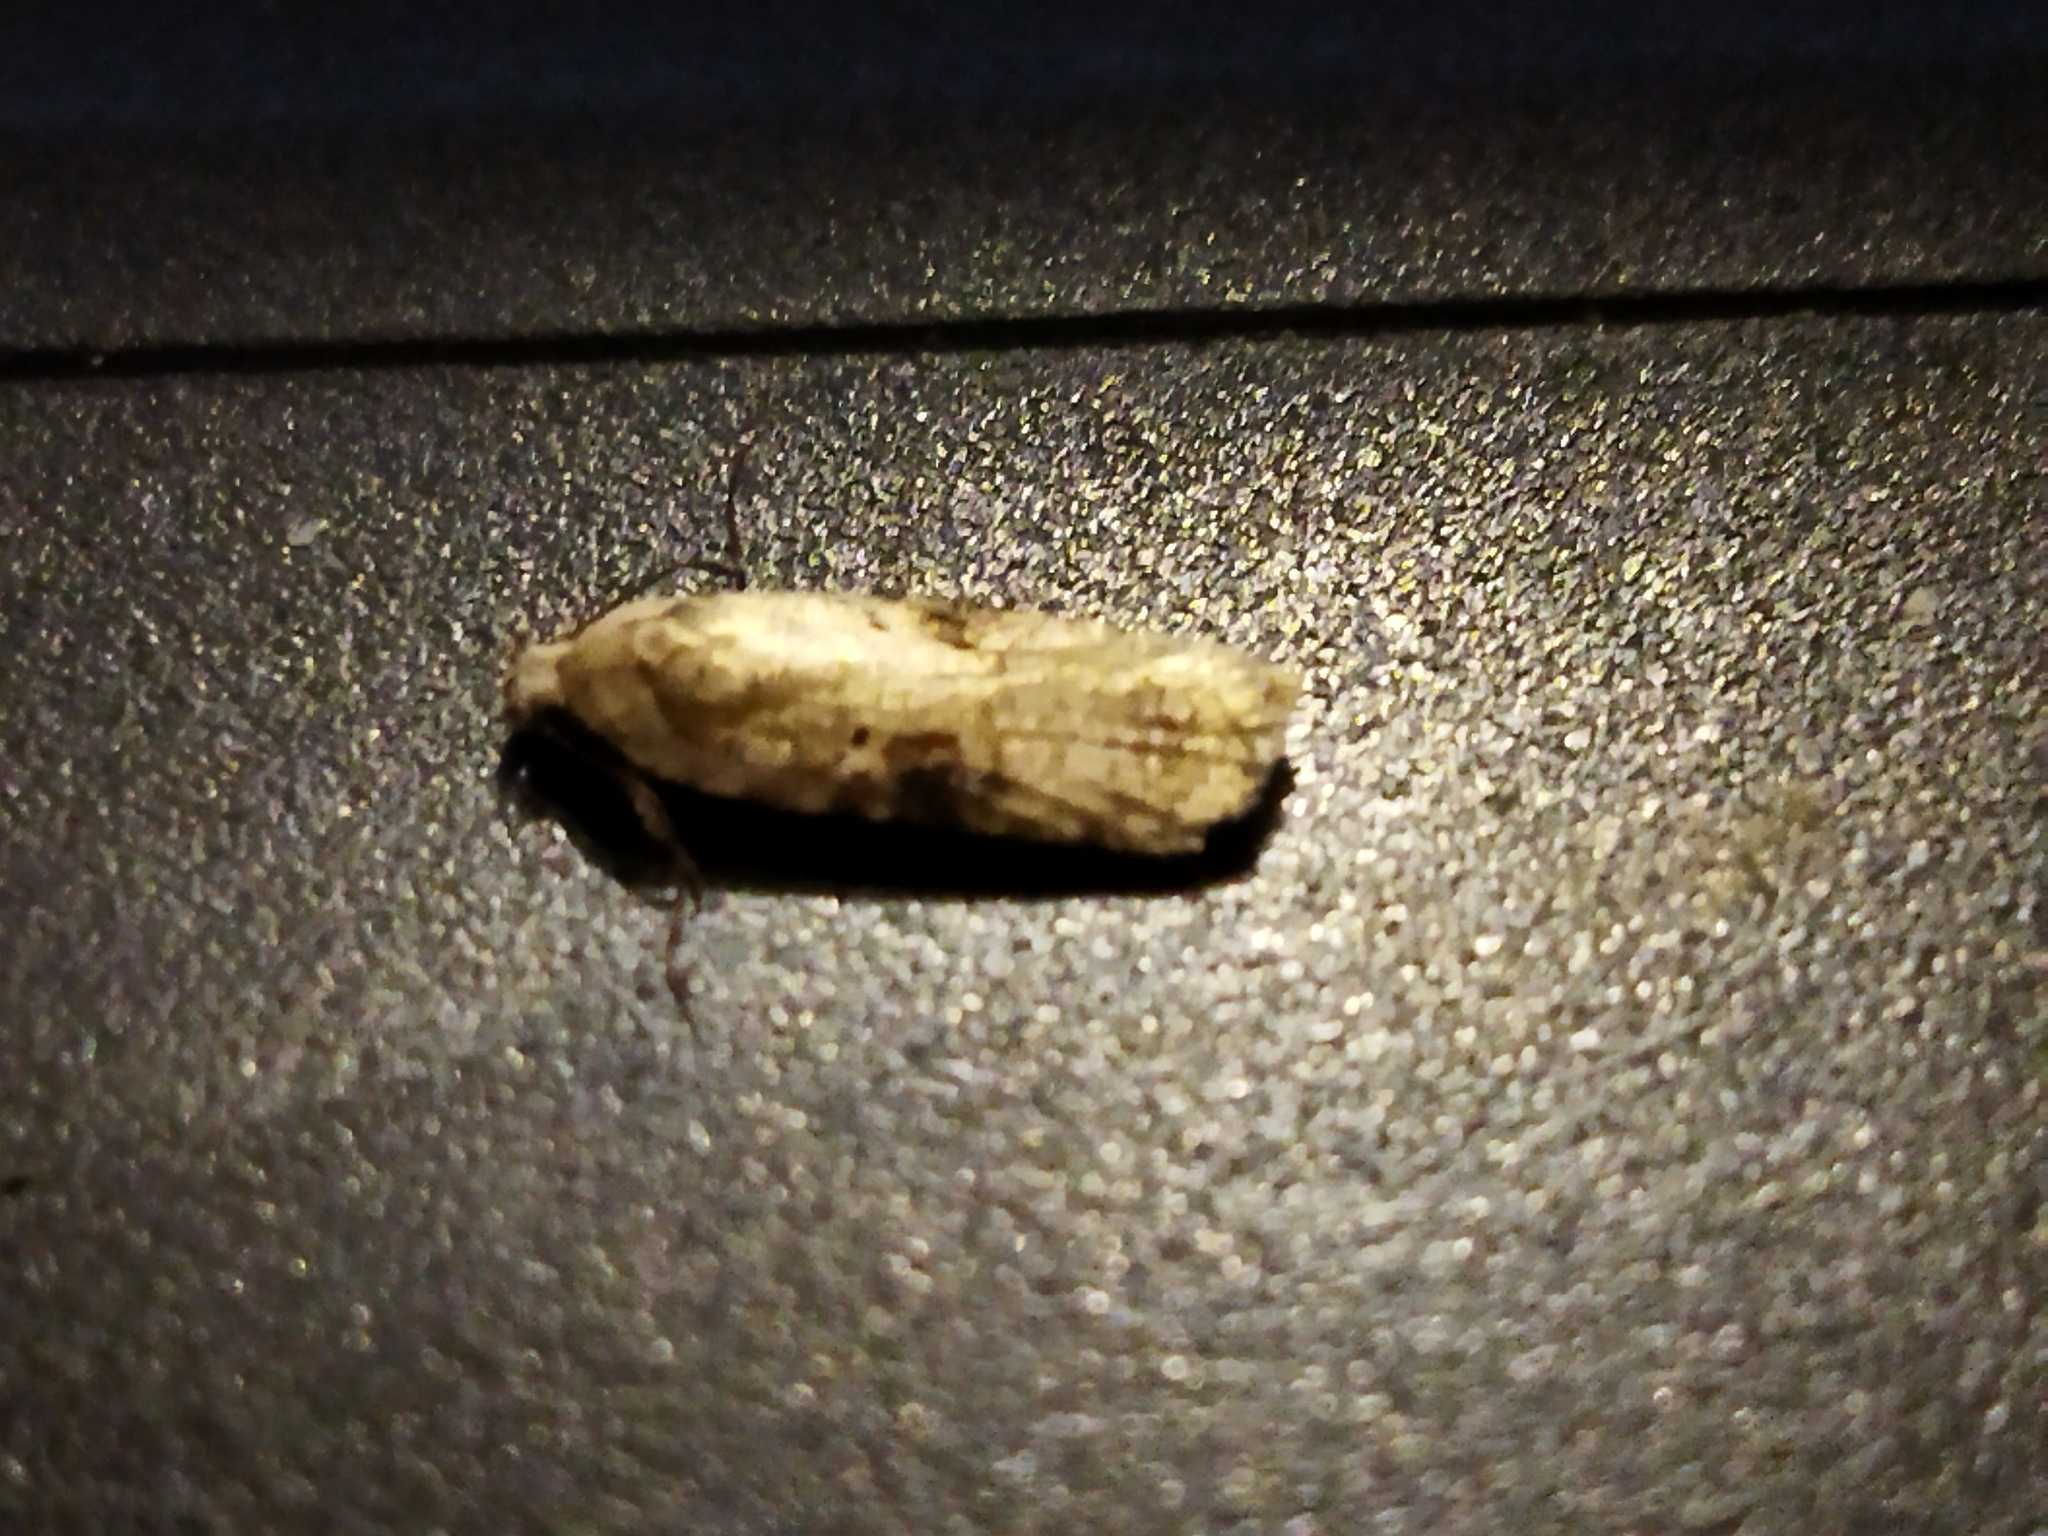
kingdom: Animalia
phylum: Arthropoda
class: Insecta
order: Lepidoptera
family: Depressariidae
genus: Agonopterix
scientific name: Agonopterix alstroemeriana
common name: Moth
